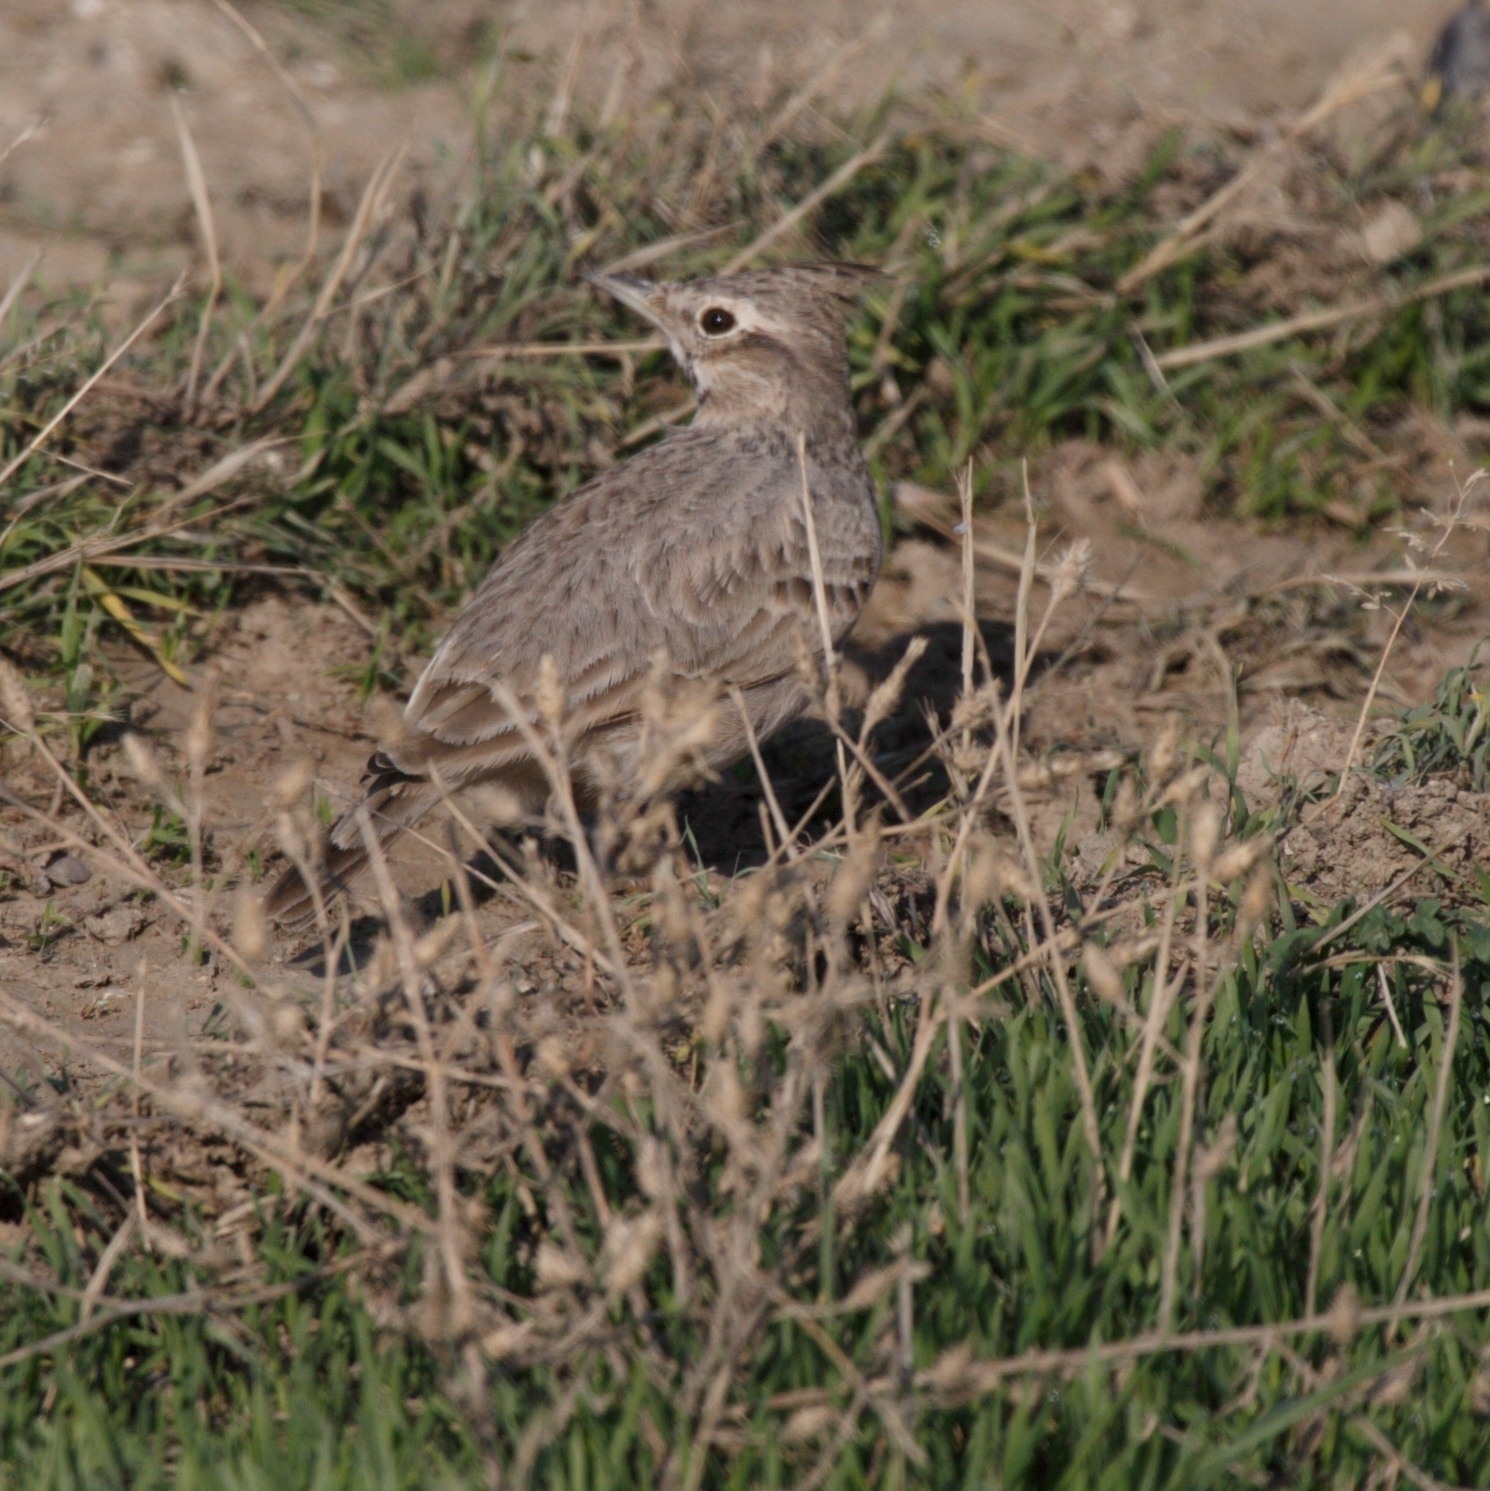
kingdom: Animalia
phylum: Chordata
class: Aves
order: Passeriformes
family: Alaudidae
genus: Galerida
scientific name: Galerida cristata
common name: Crested lark
